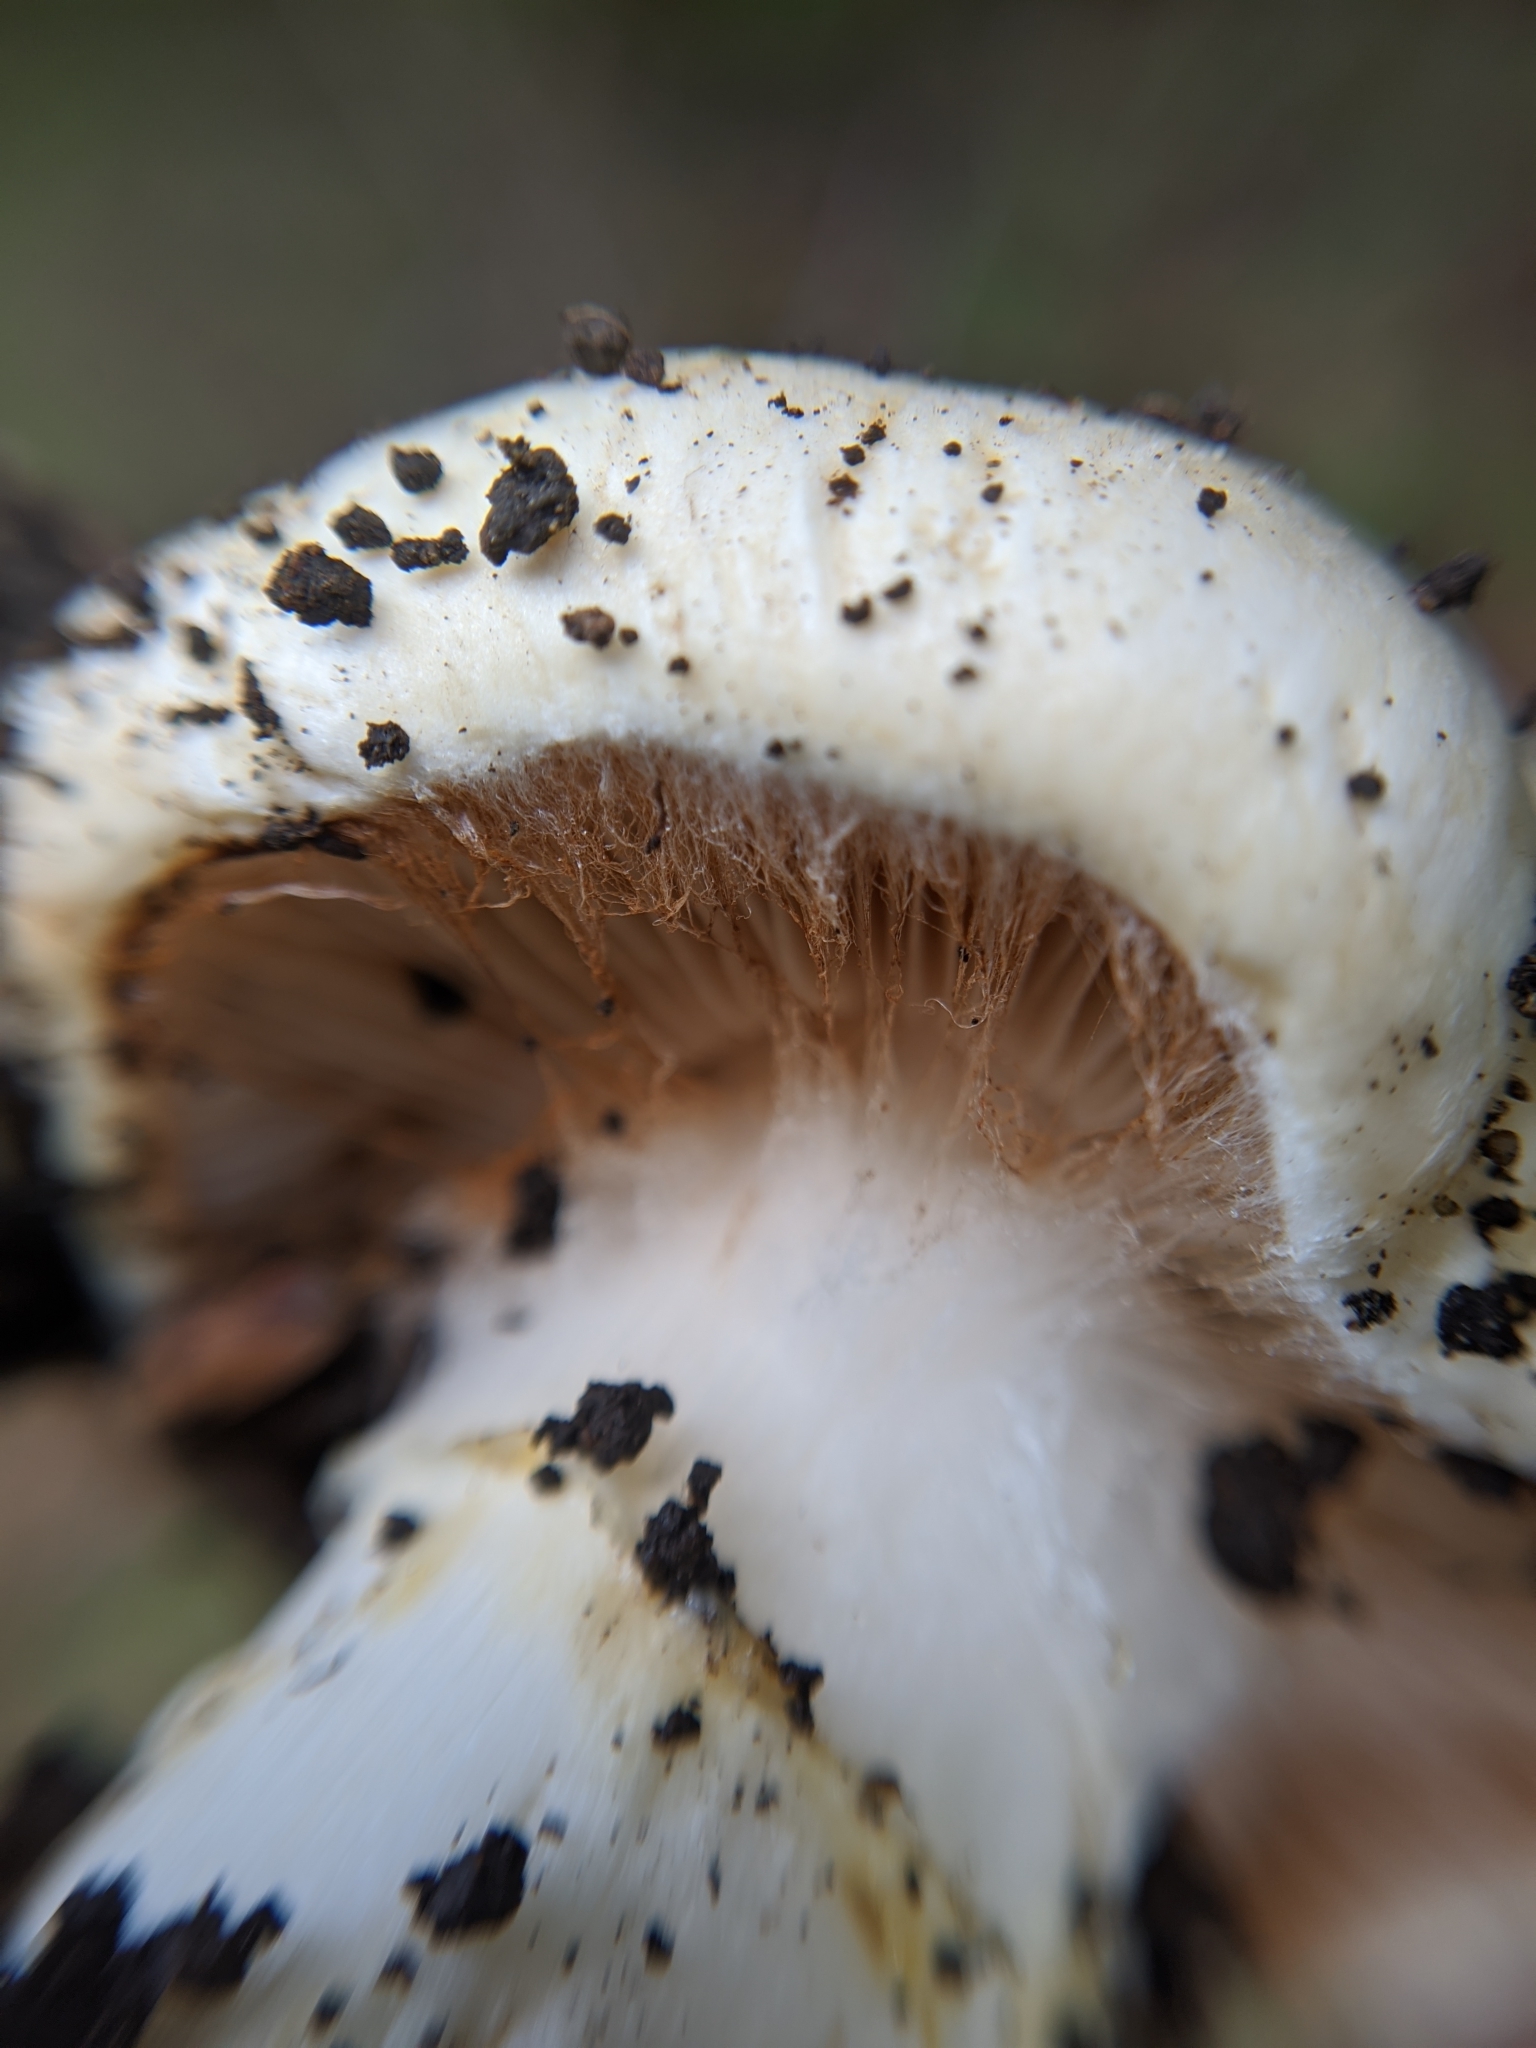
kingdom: Fungi
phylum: Basidiomycota
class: Agaricomycetes
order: Agaricales
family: Cortinariaceae
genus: Phlegmacium
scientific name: Phlegmacium albofragrans
